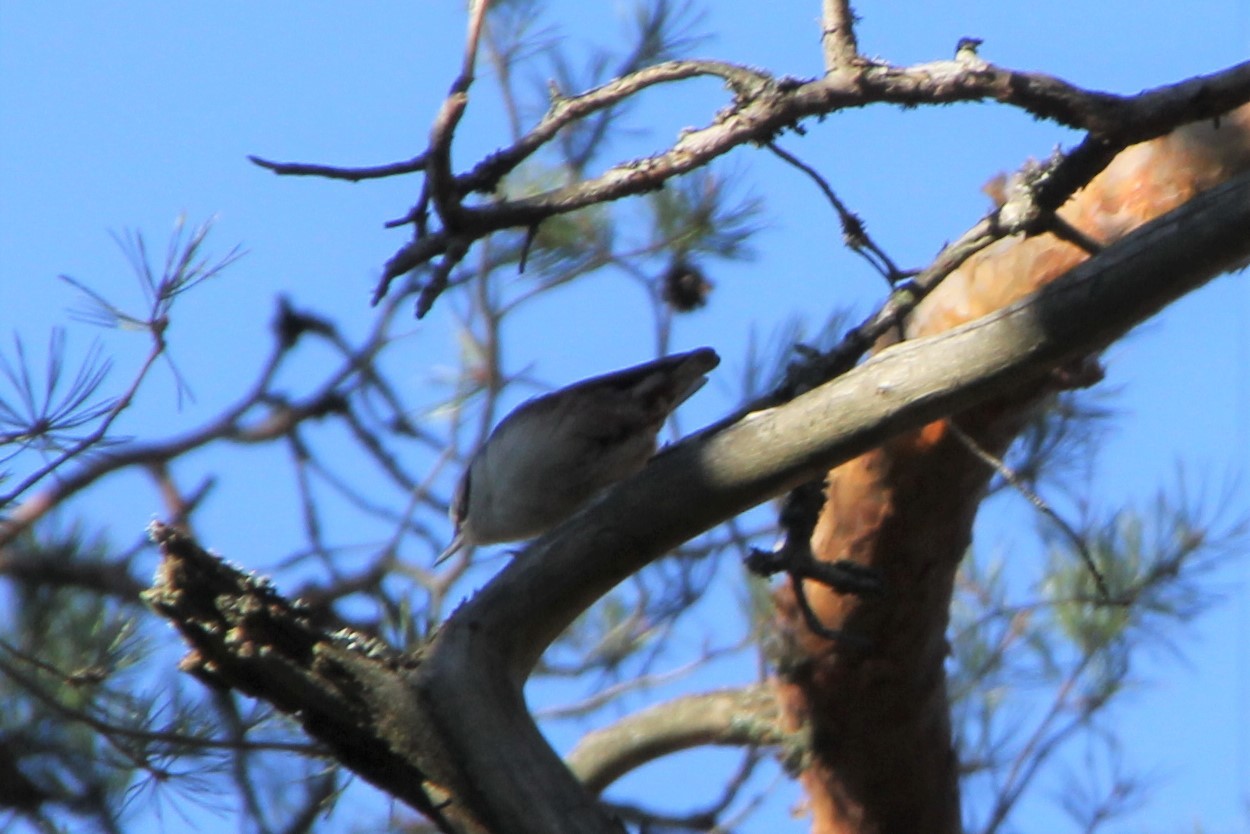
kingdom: Animalia
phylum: Chordata
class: Aves
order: Passeriformes
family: Sittidae
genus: Sitta
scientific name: Sitta europaea
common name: Eurasian nuthatch
